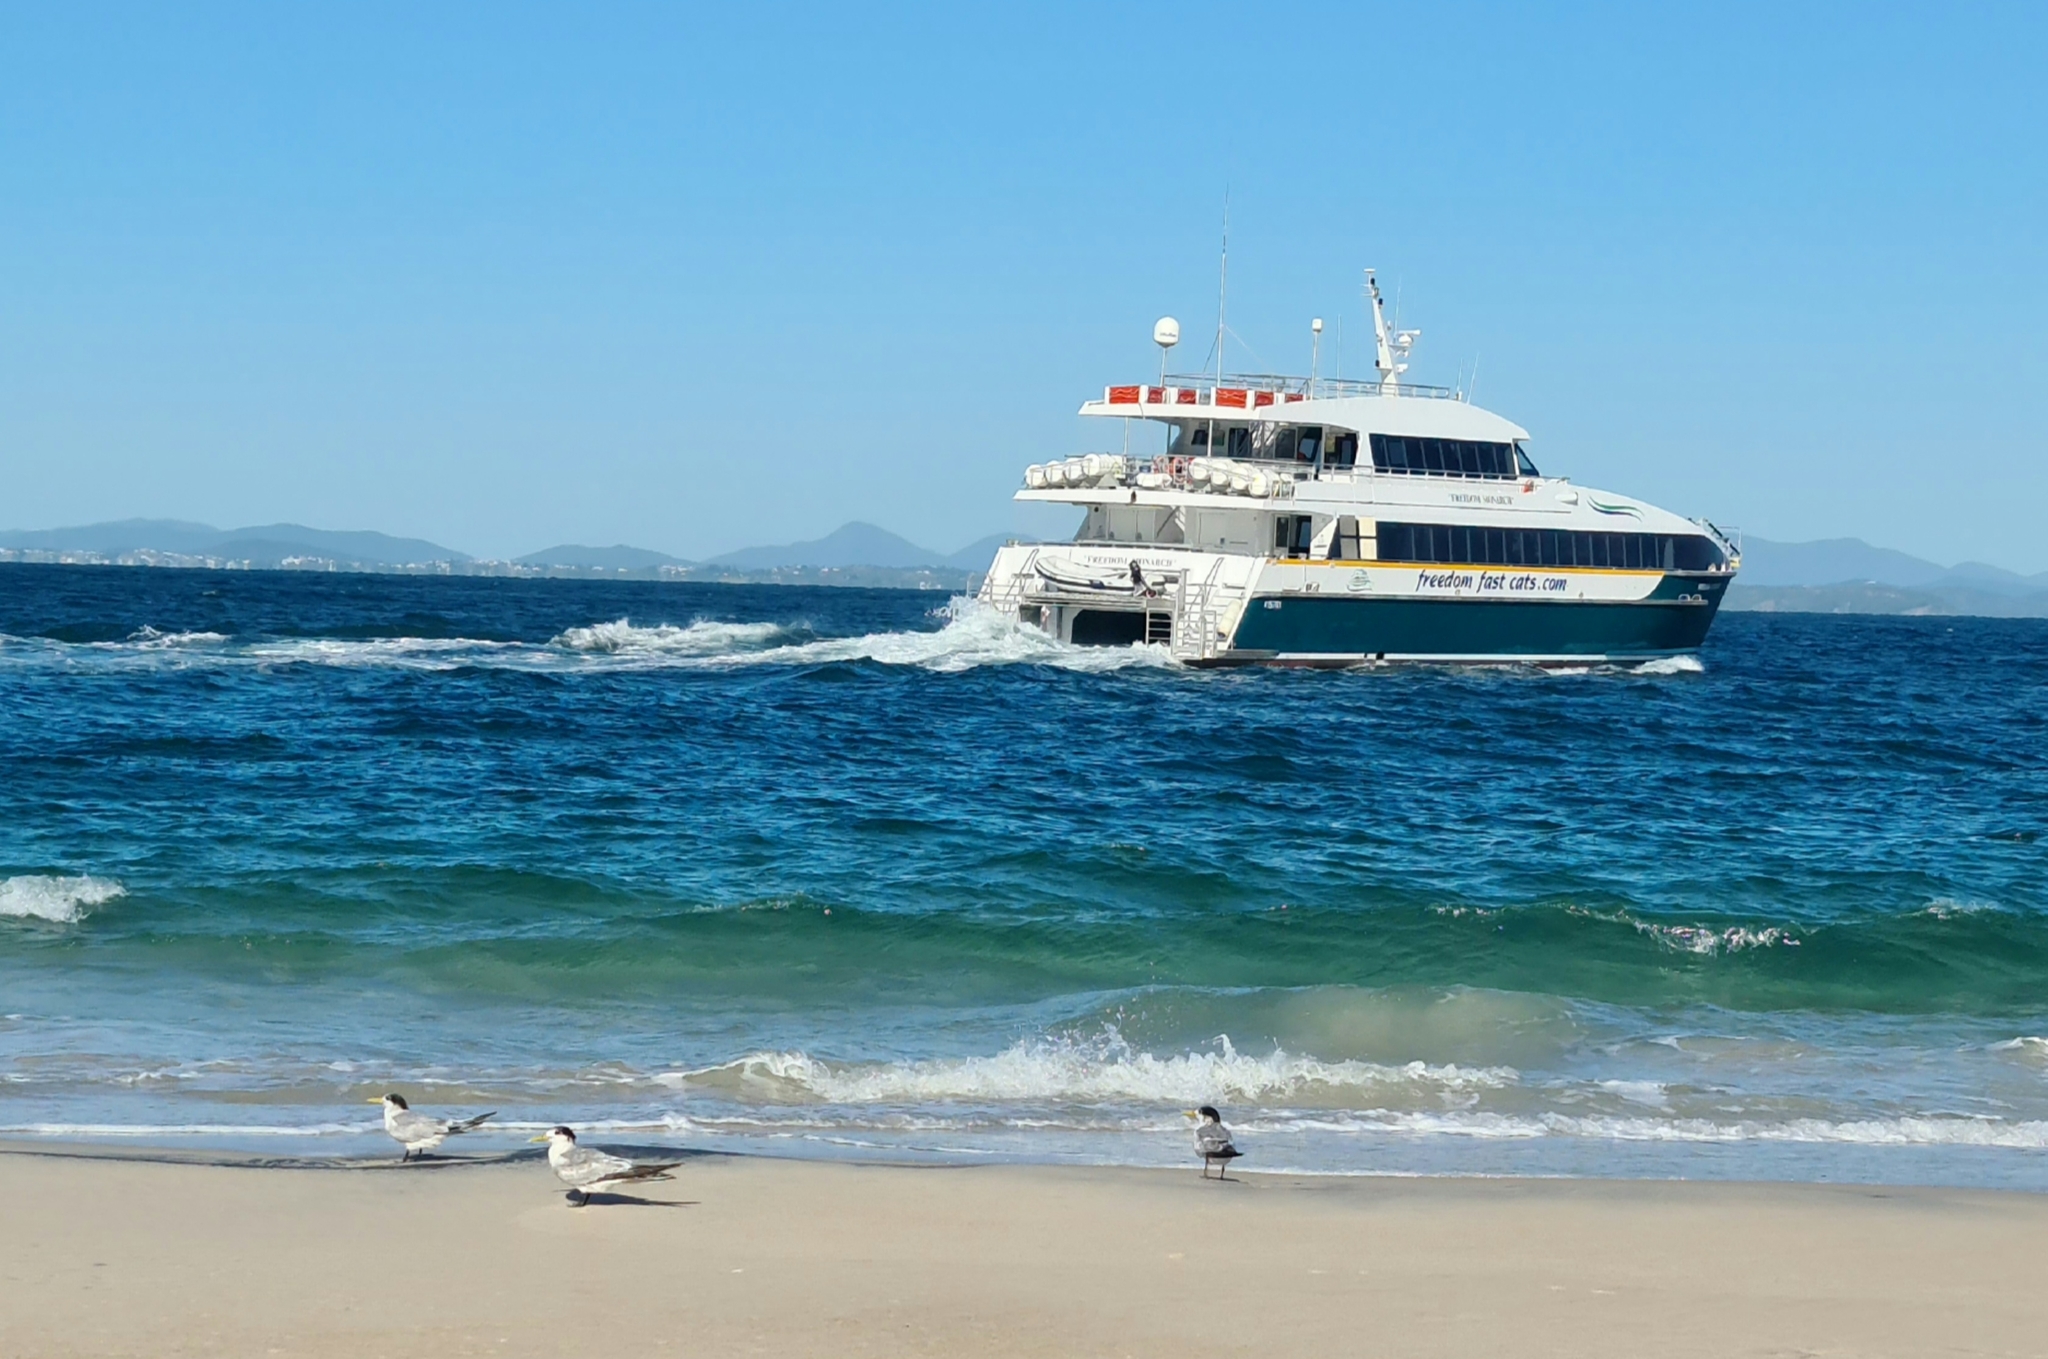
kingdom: Animalia
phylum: Chordata
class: Aves
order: Charadriiformes
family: Laridae
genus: Thalasseus
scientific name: Thalasseus bergii
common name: Greater crested tern
